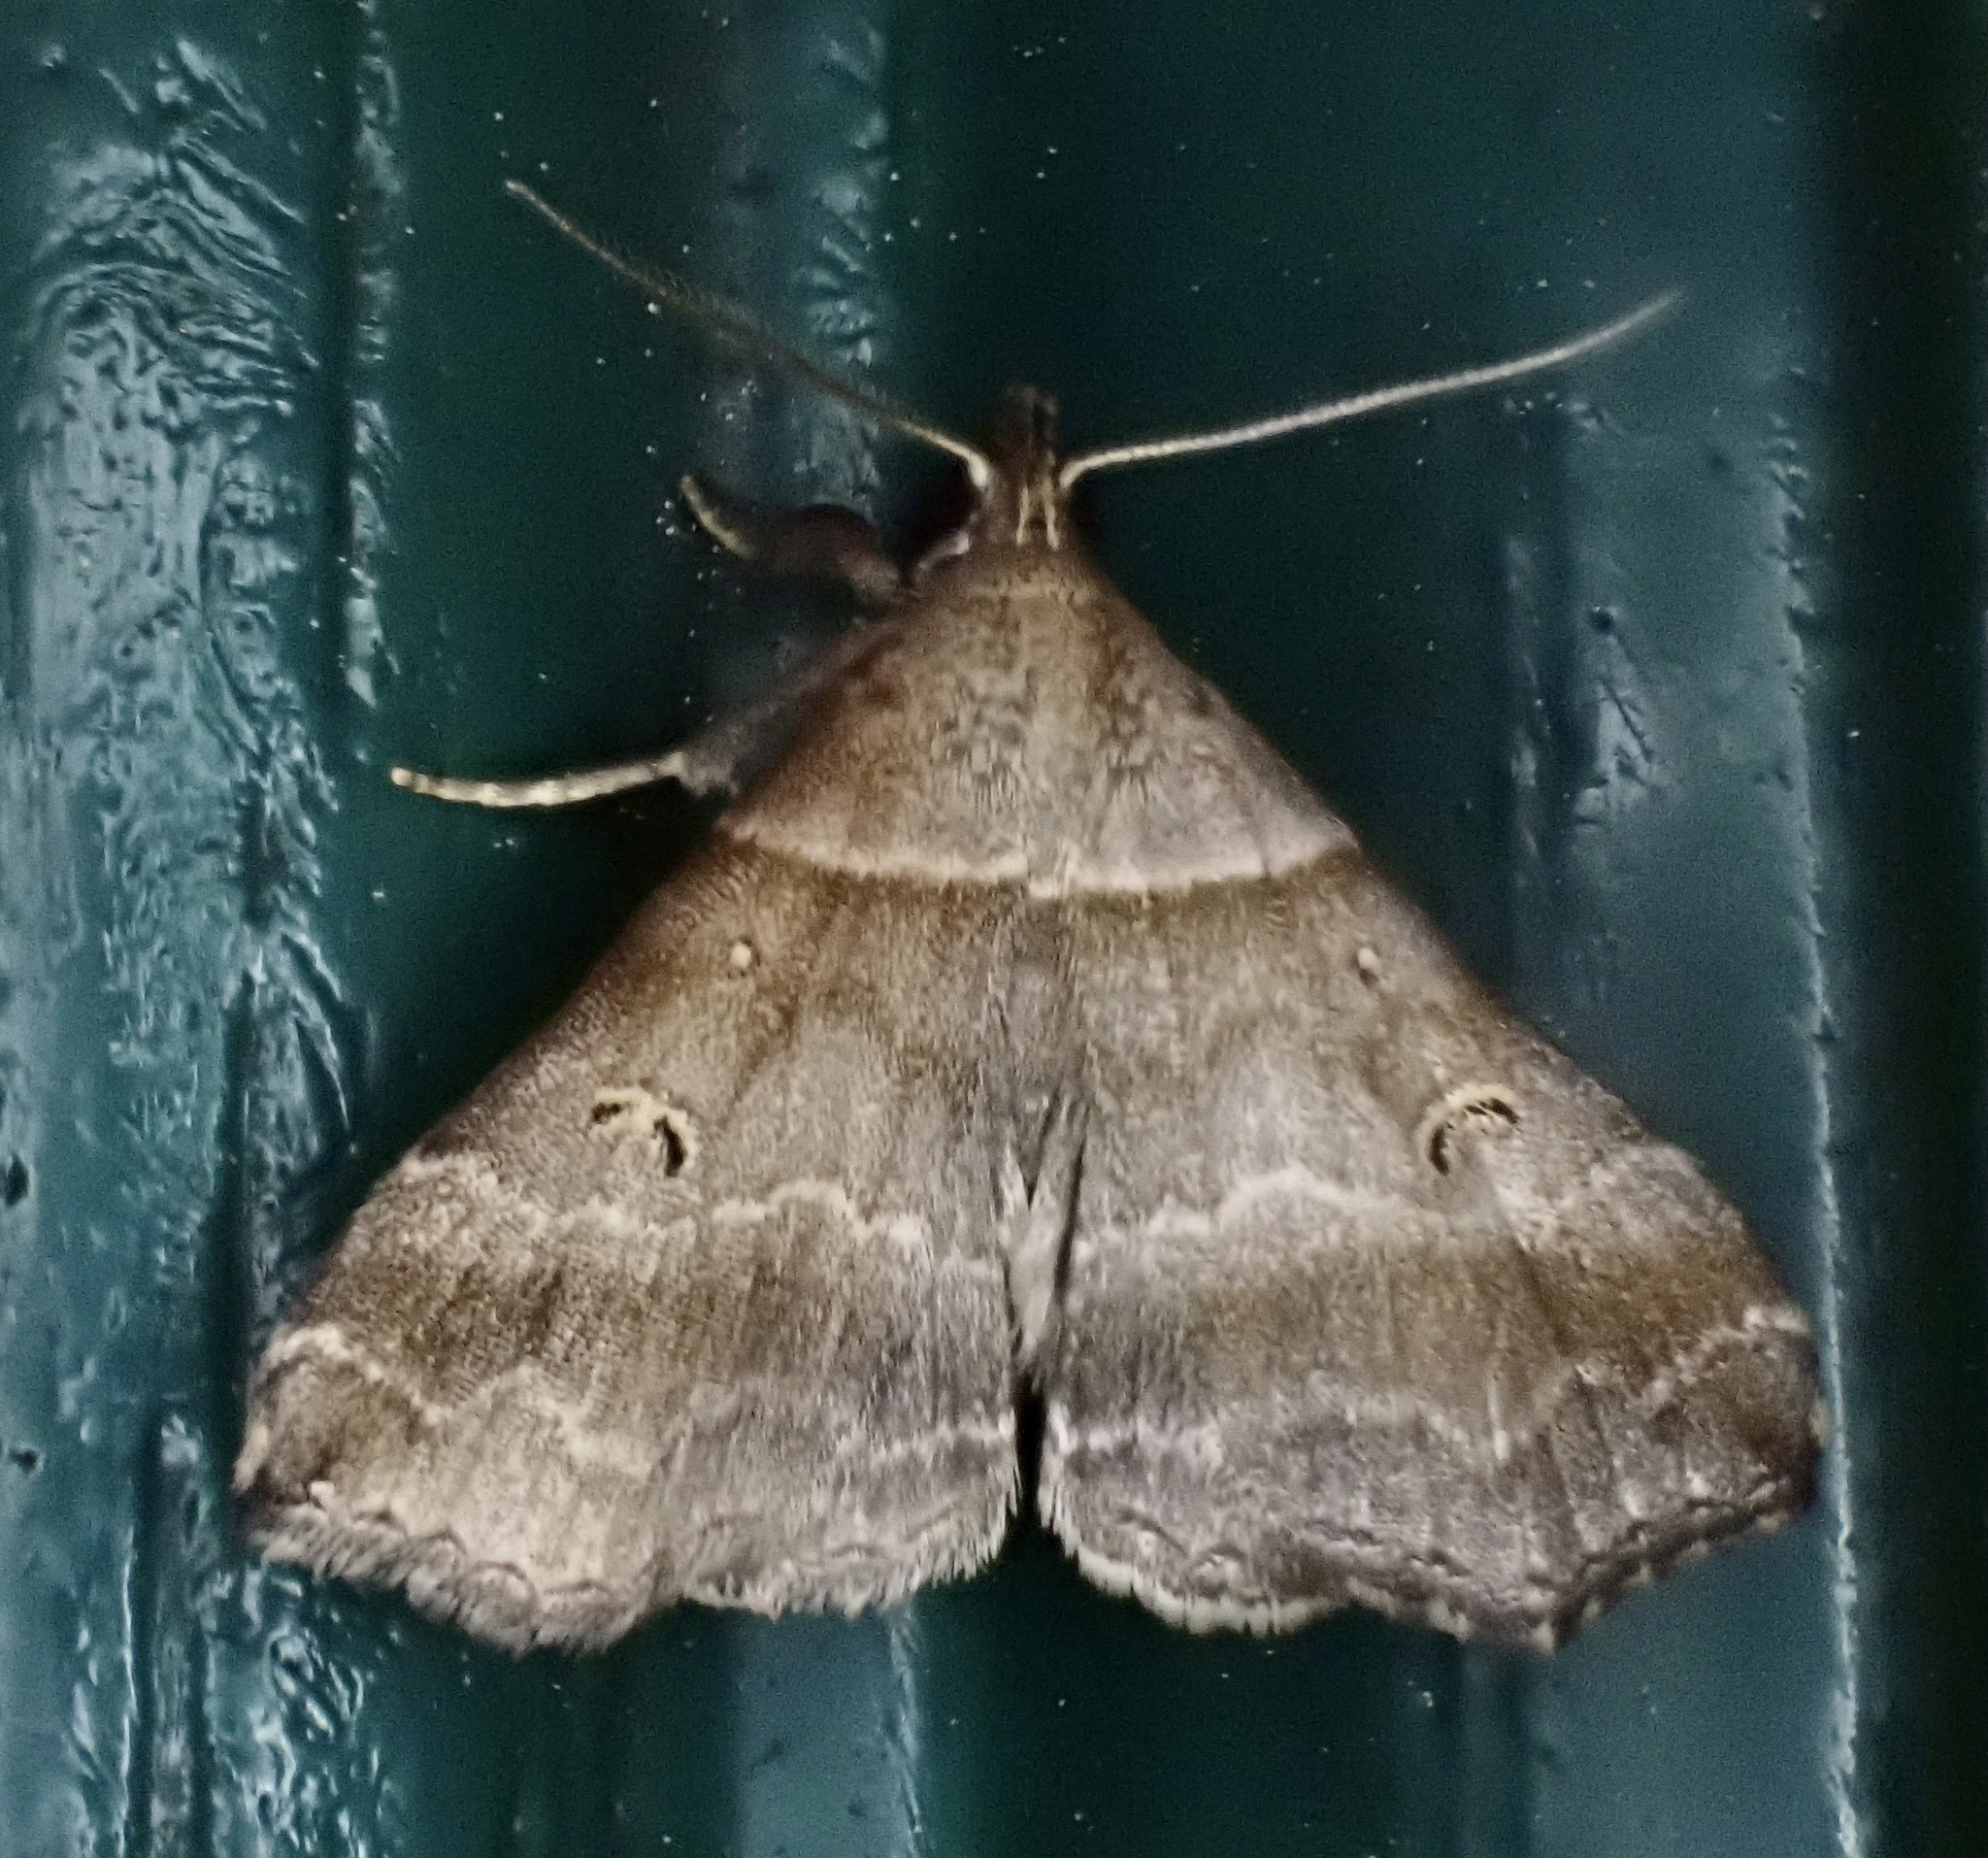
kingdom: Animalia
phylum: Arthropoda
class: Insecta
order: Lepidoptera
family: Erebidae
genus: Phaeolita
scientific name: Phaeolita pyramusalis
